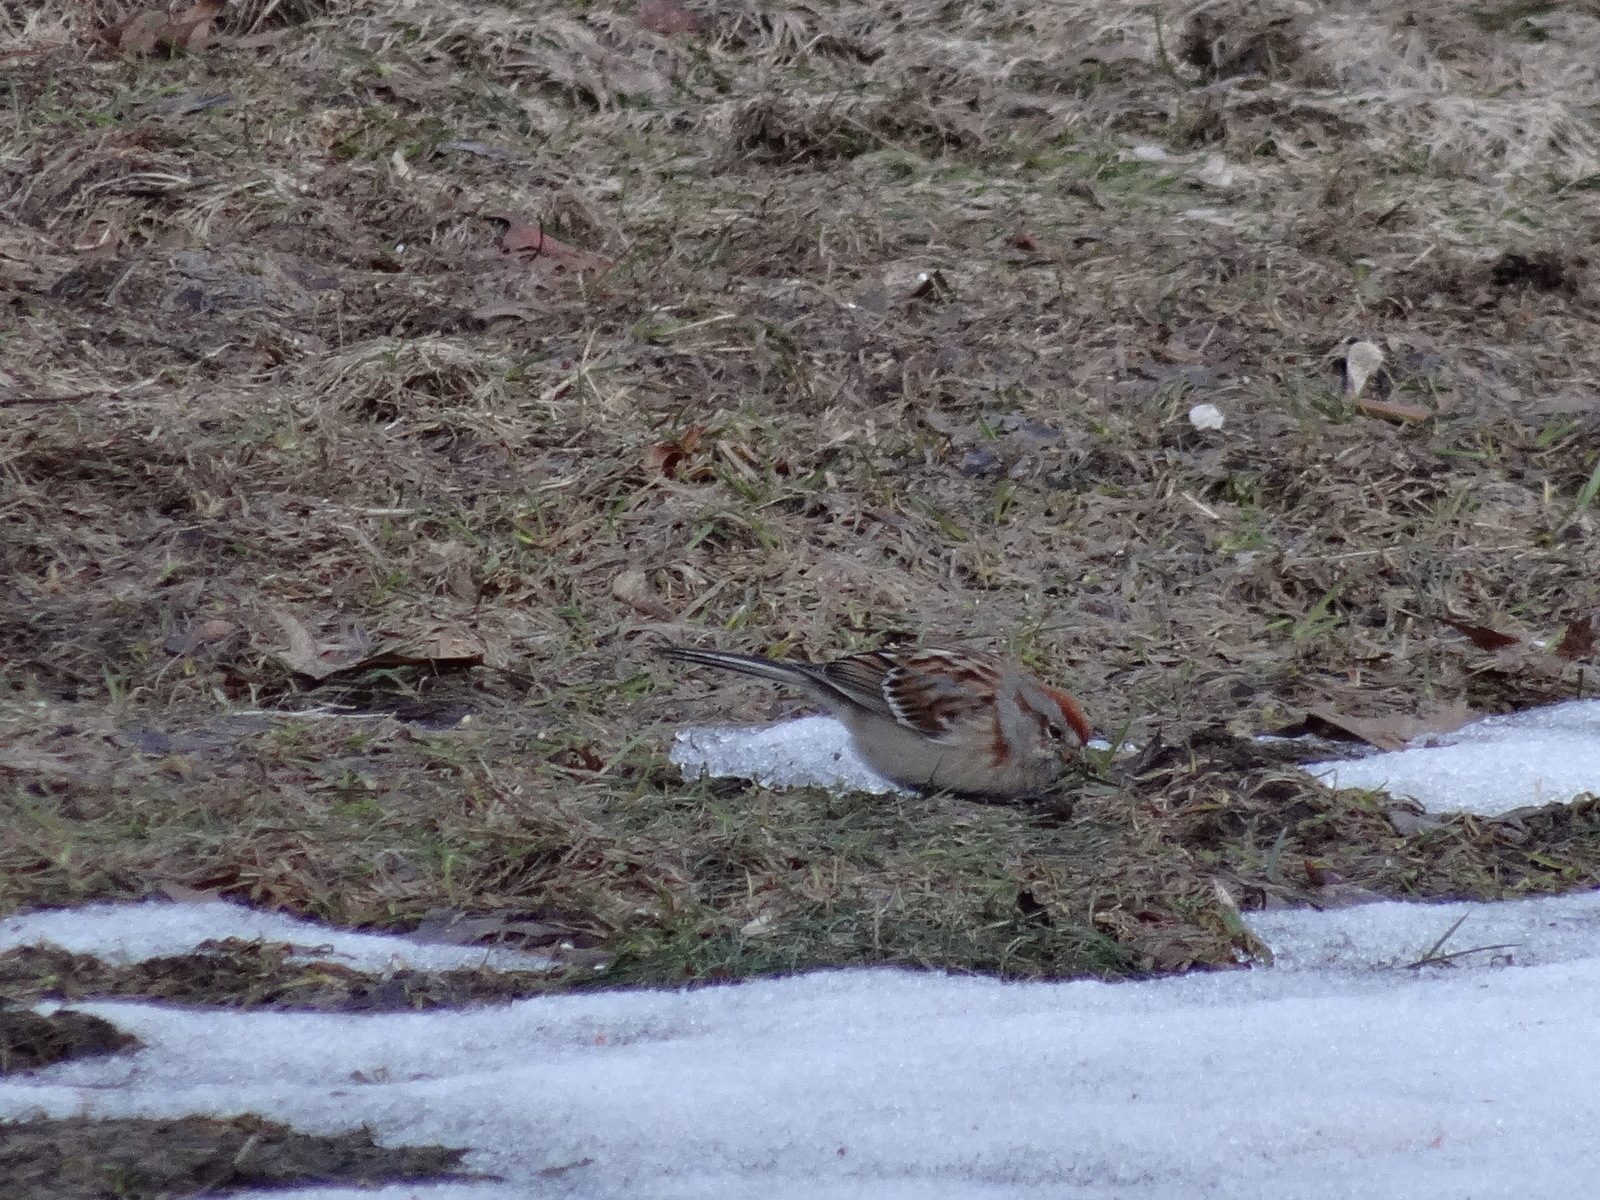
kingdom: Animalia
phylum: Chordata
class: Aves
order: Passeriformes
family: Passerellidae
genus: Spizelloides
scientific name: Spizelloides arborea
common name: American tree sparrow
